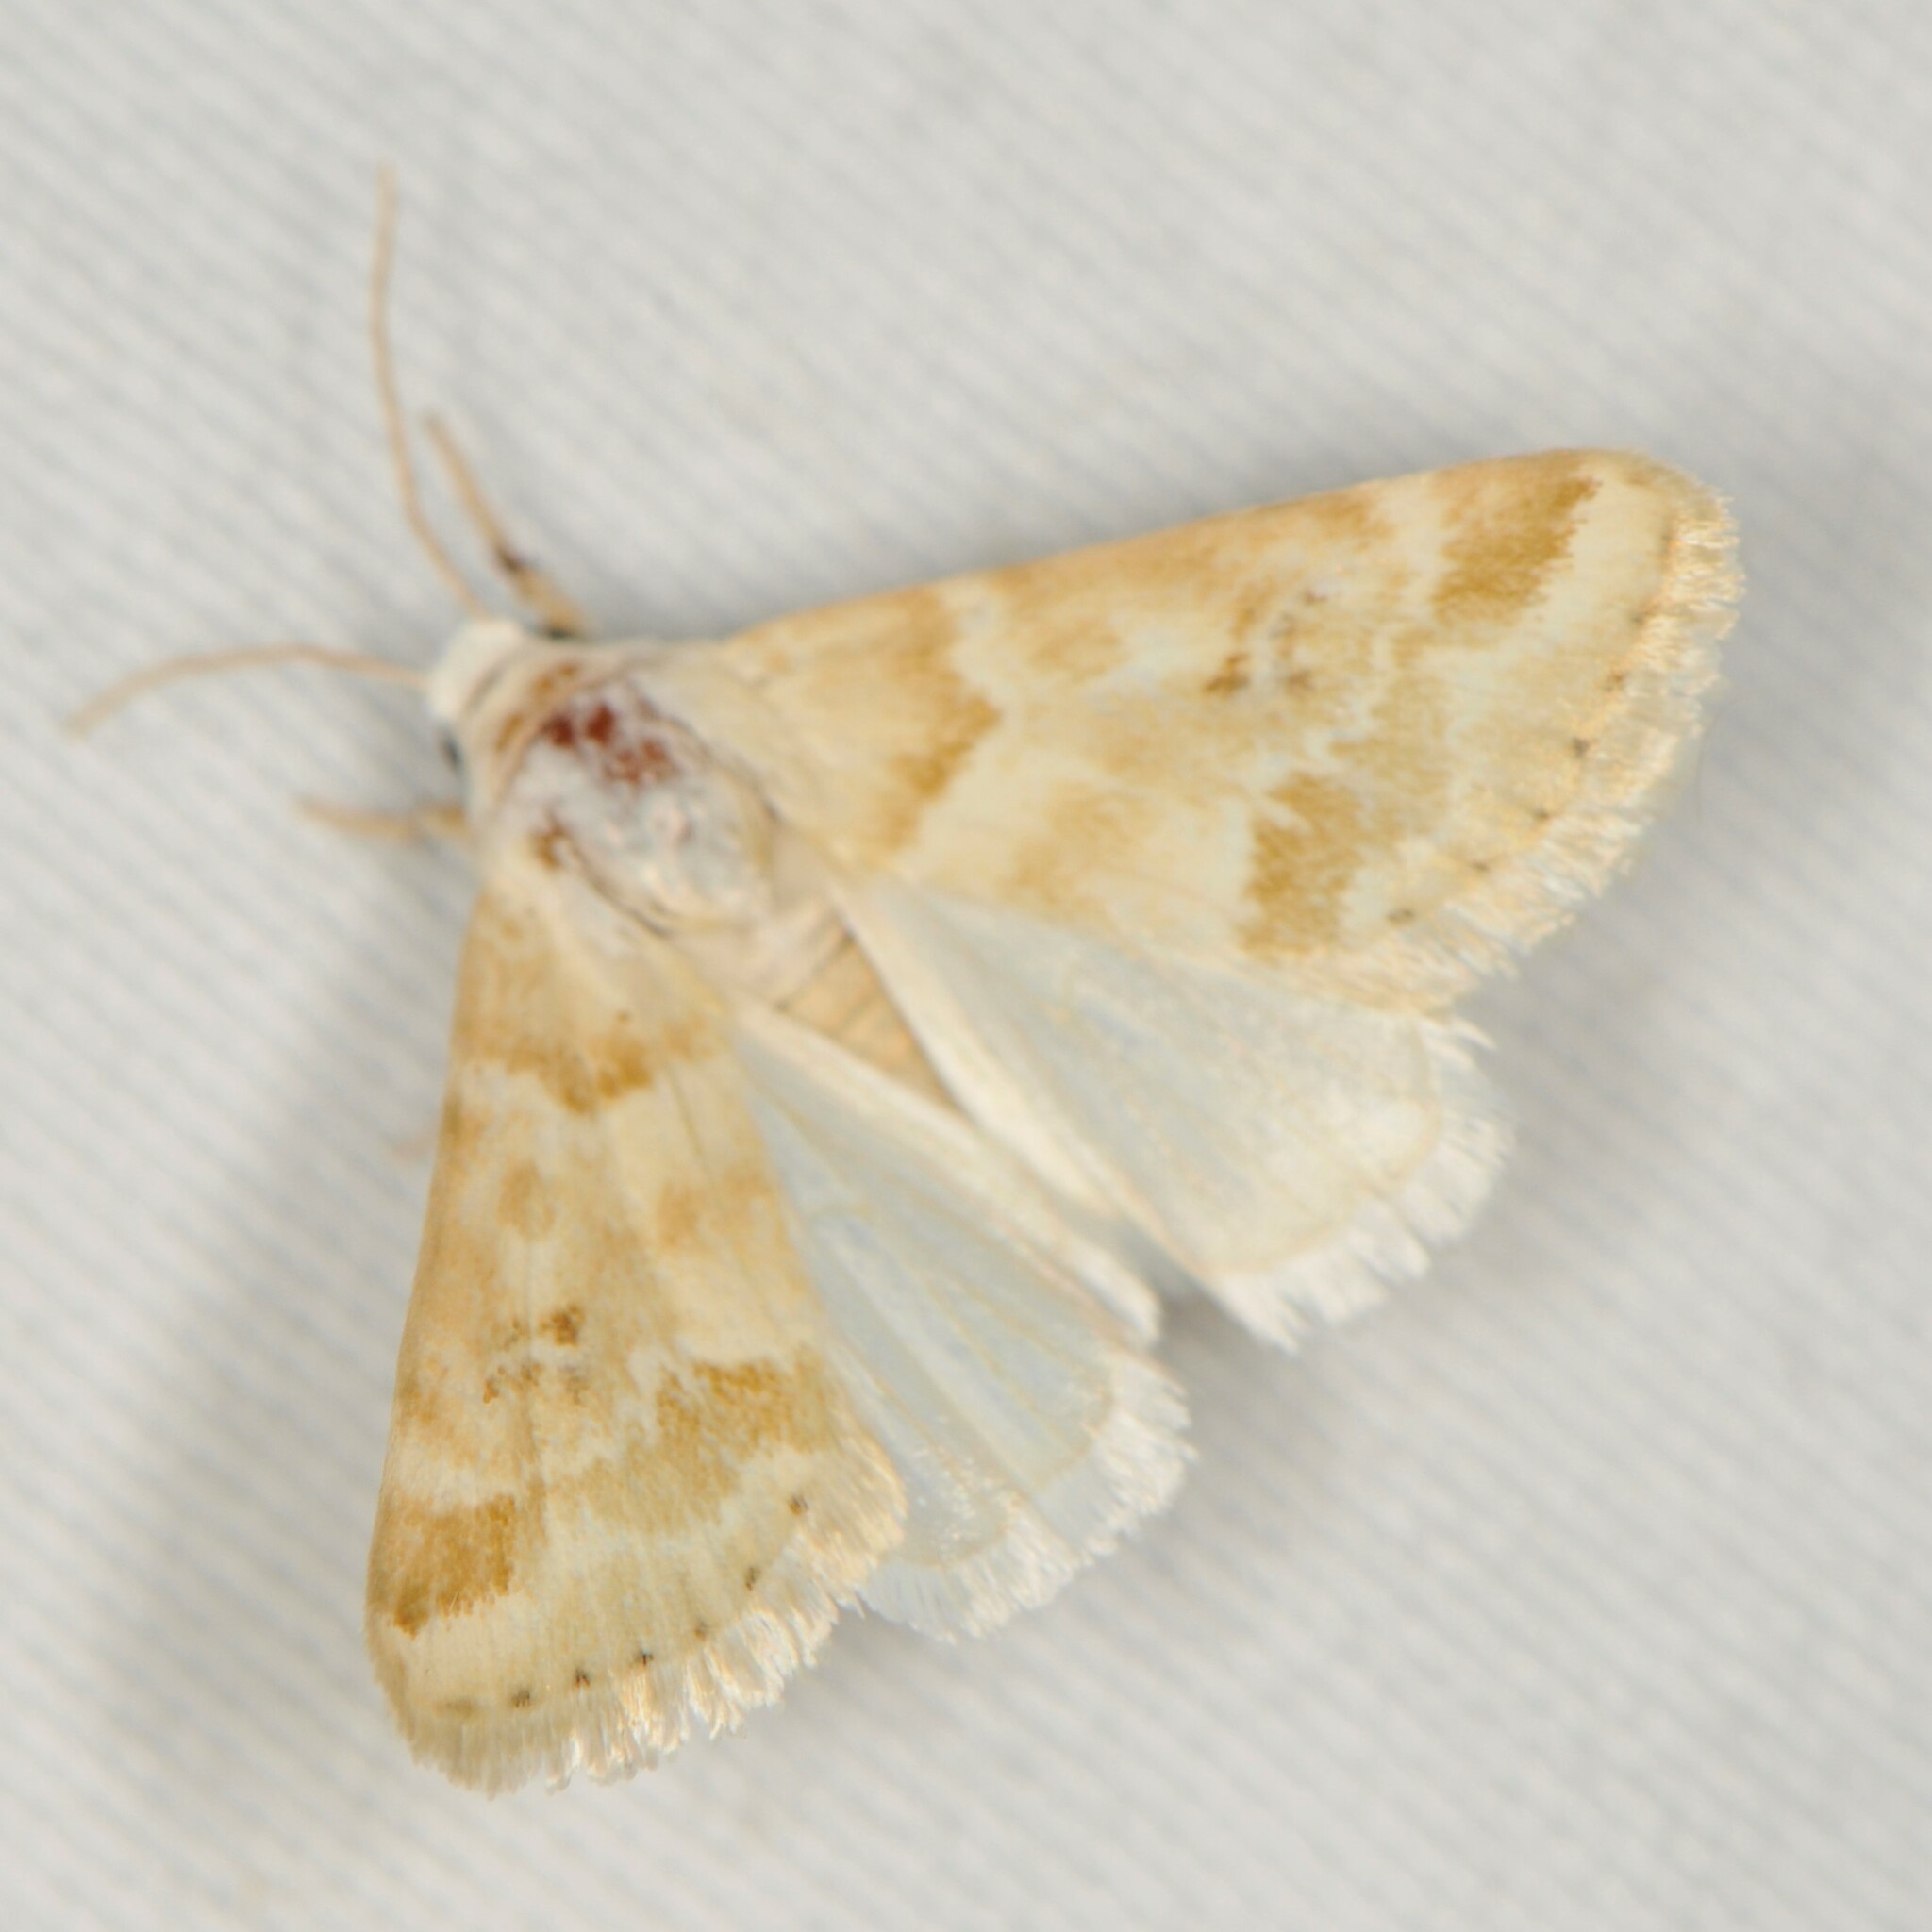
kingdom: Animalia
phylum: Arthropoda
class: Insecta
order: Lepidoptera
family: Noctuidae
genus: Schinia
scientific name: Schinia coercita
